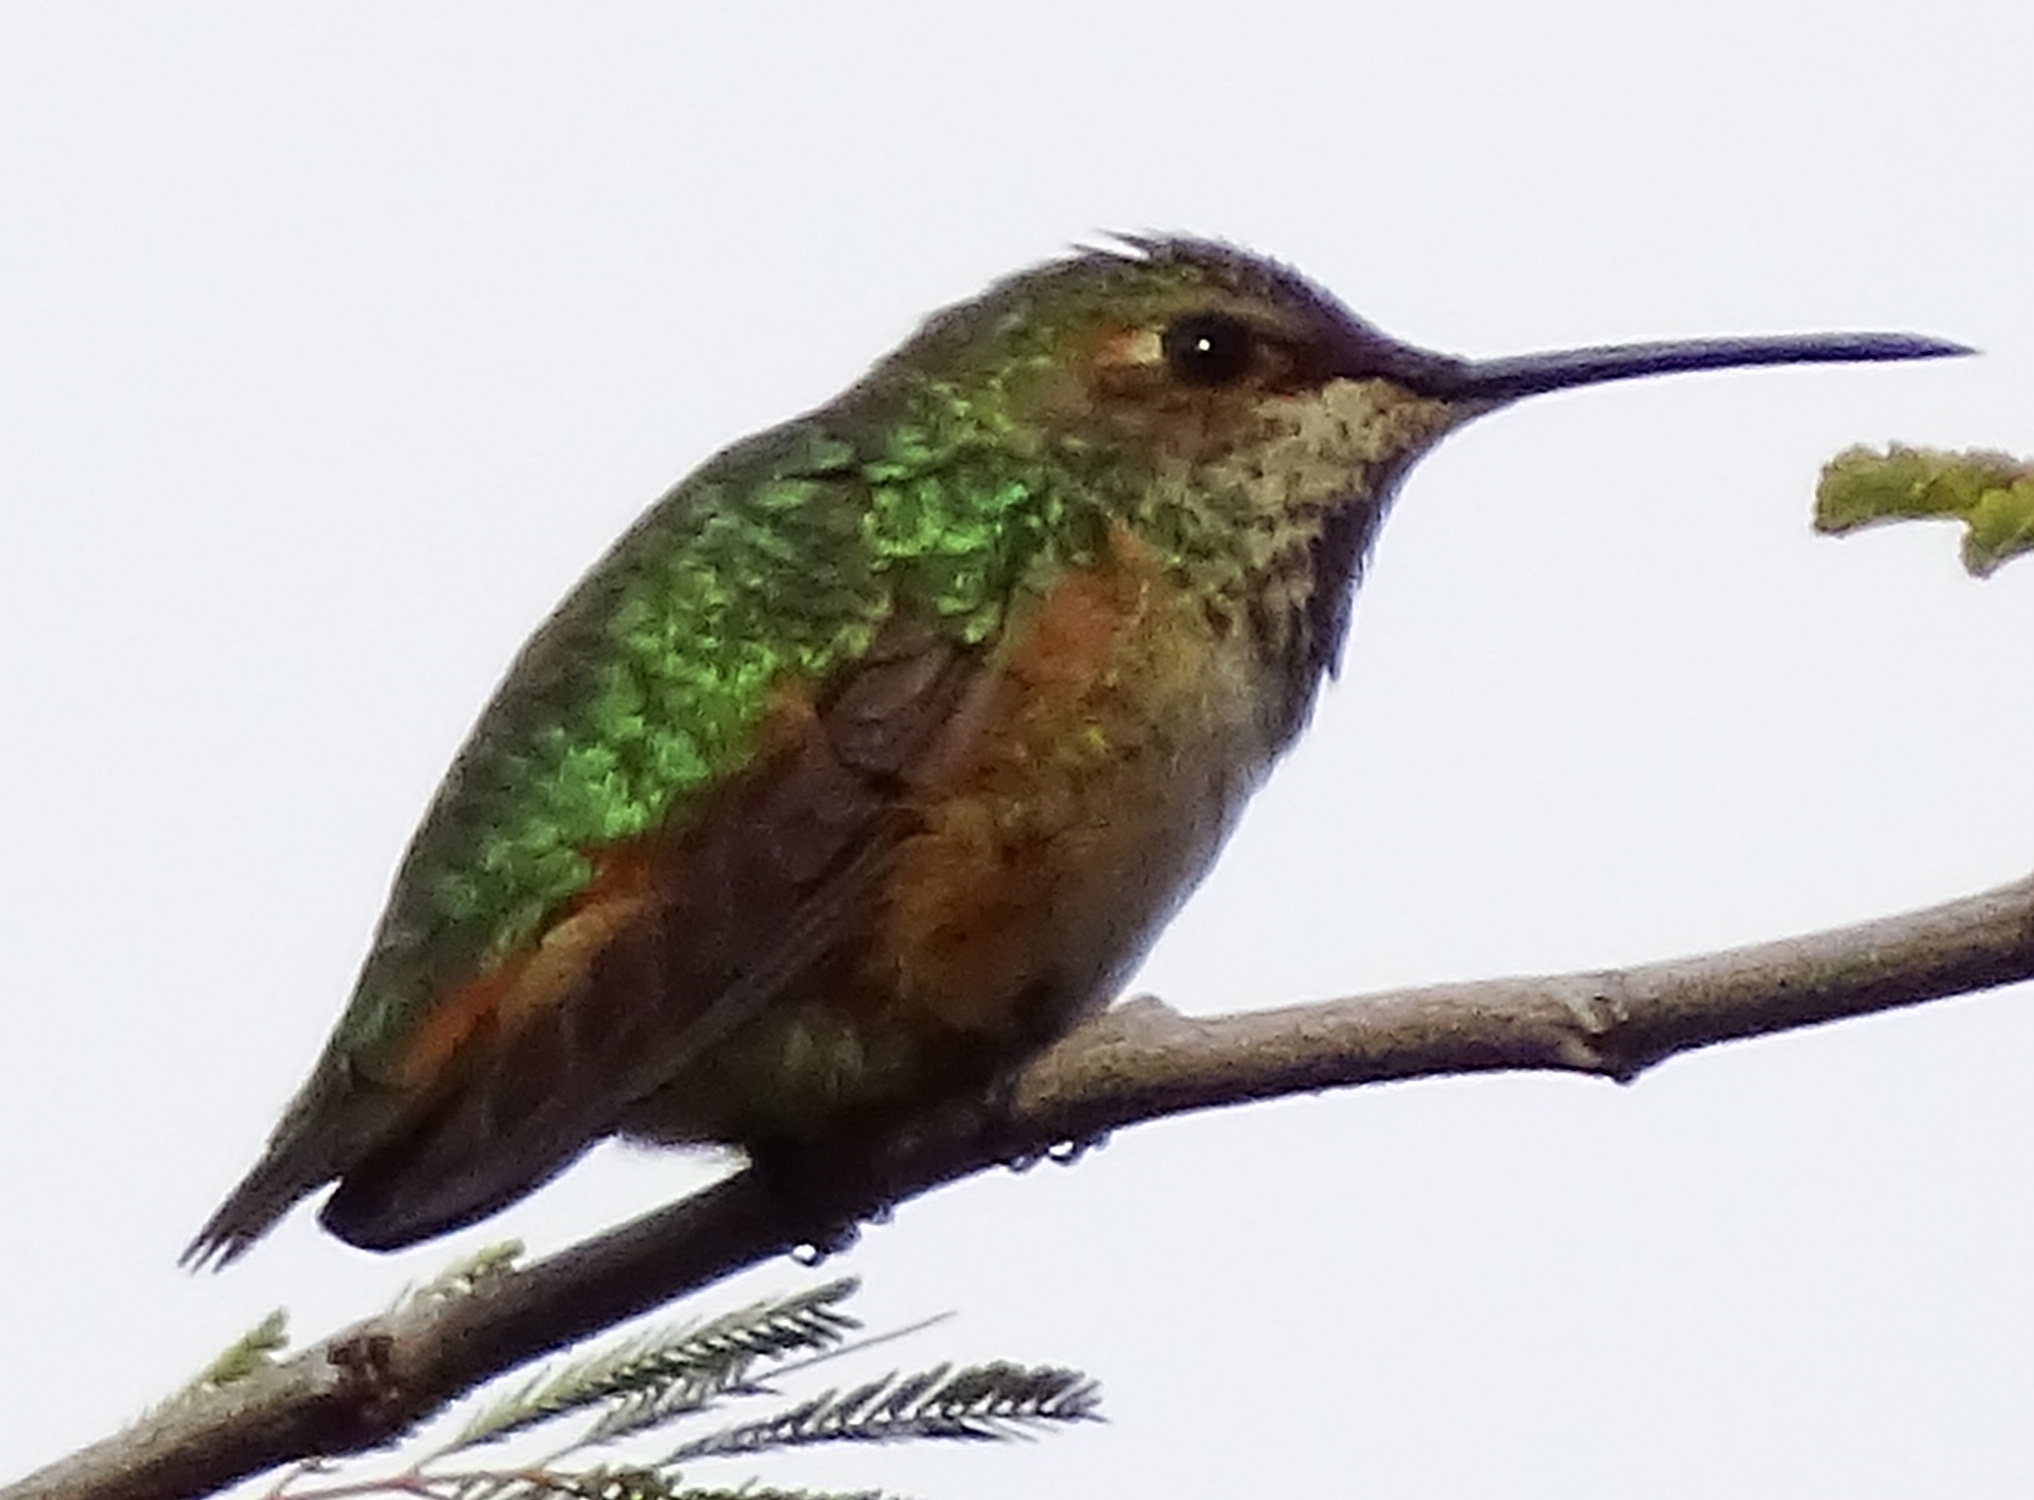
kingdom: Animalia
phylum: Chordata
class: Aves
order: Apodiformes
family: Trochilidae
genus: Selasphorus
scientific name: Selasphorus sasin
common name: Allen's hummingbird
